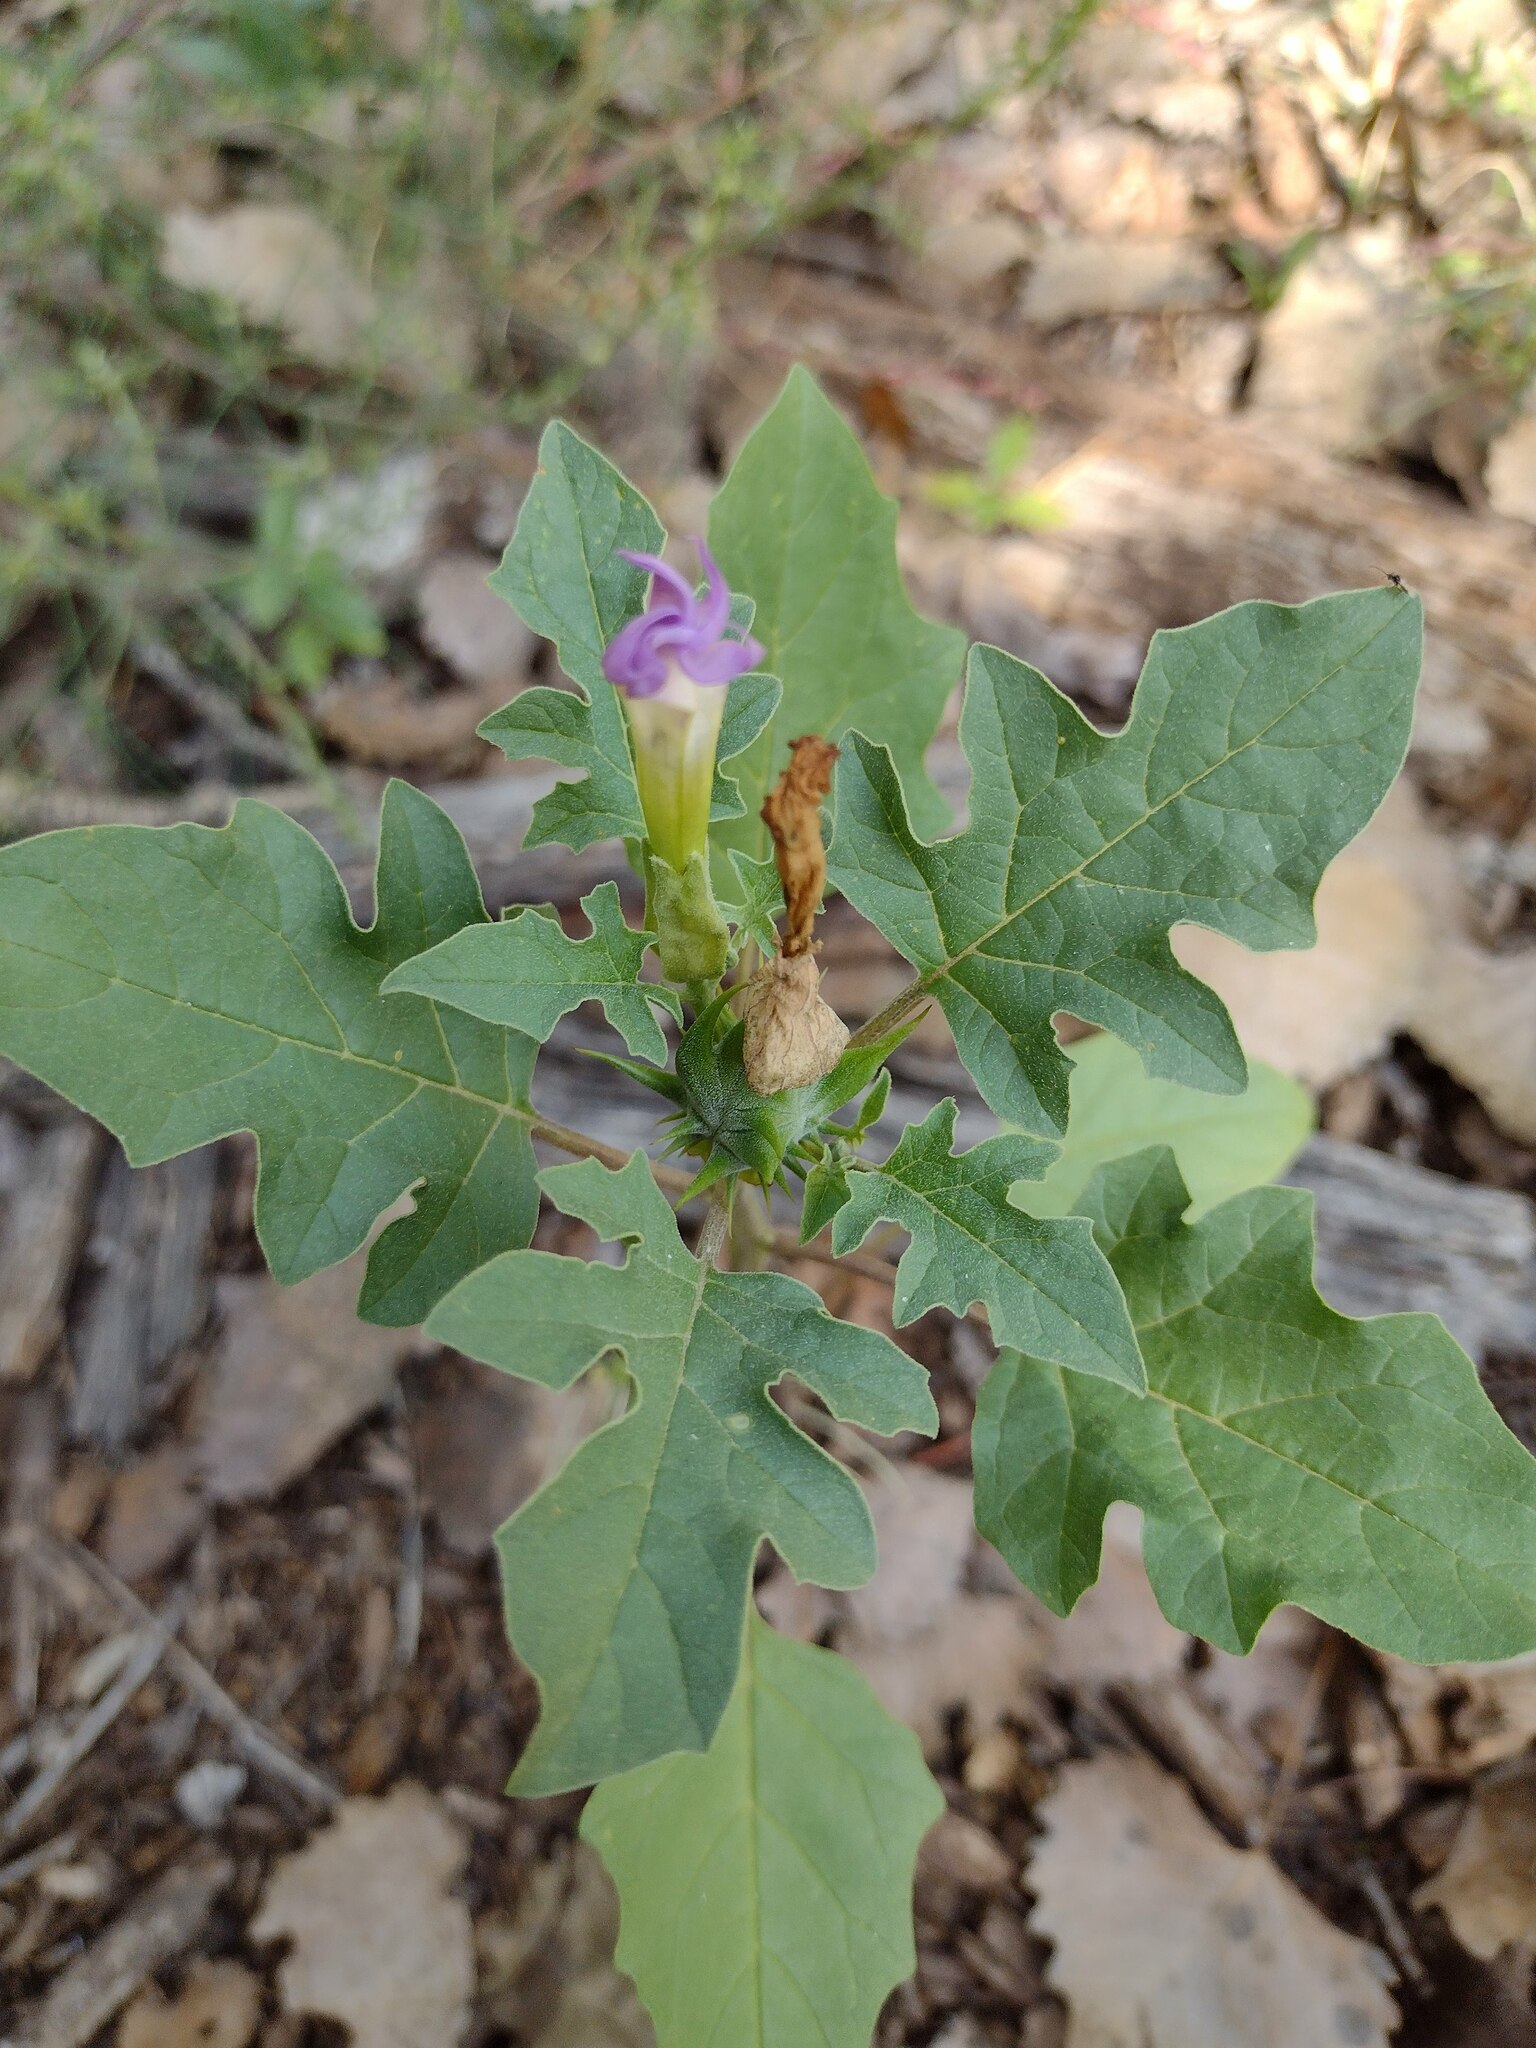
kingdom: Plantae
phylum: Tracheophyta
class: Magnoliopsida
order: Solanales
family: Solanaceae
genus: Datura
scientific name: Datura quercifolia
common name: Oak-leaf datura
